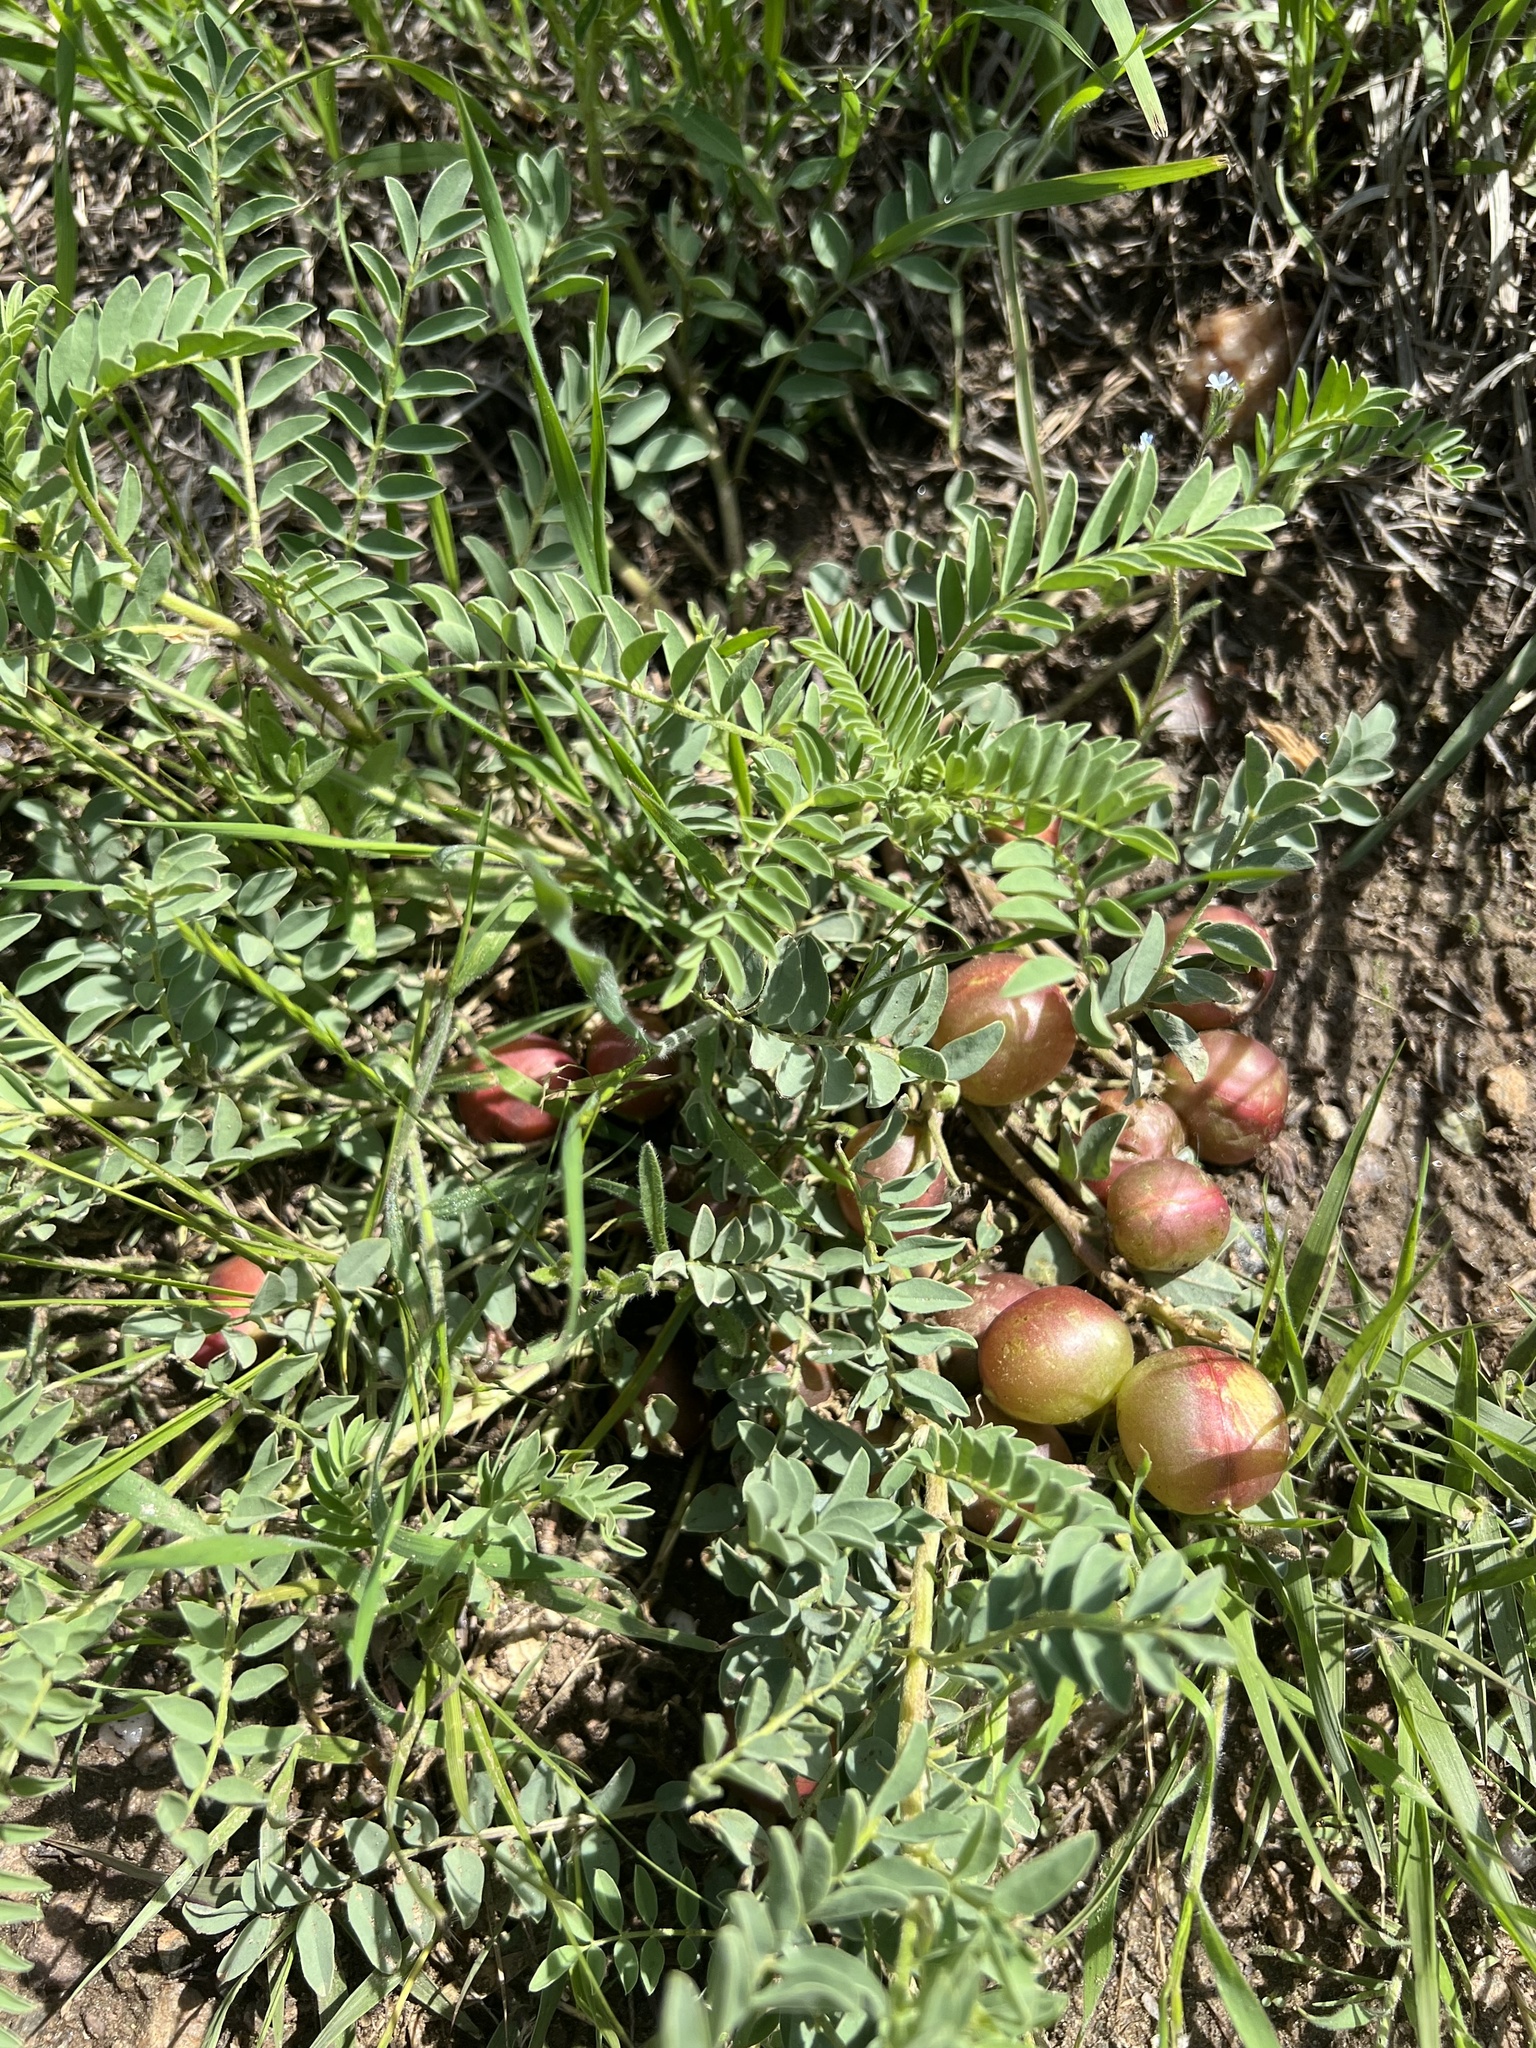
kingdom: Plantae
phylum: Tracheophyta
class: Magnoliopsida
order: Fabales
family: Fabaceae
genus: Astragalus
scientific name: Astragalus crassicarpus
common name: Ground-plum milk-vetch
